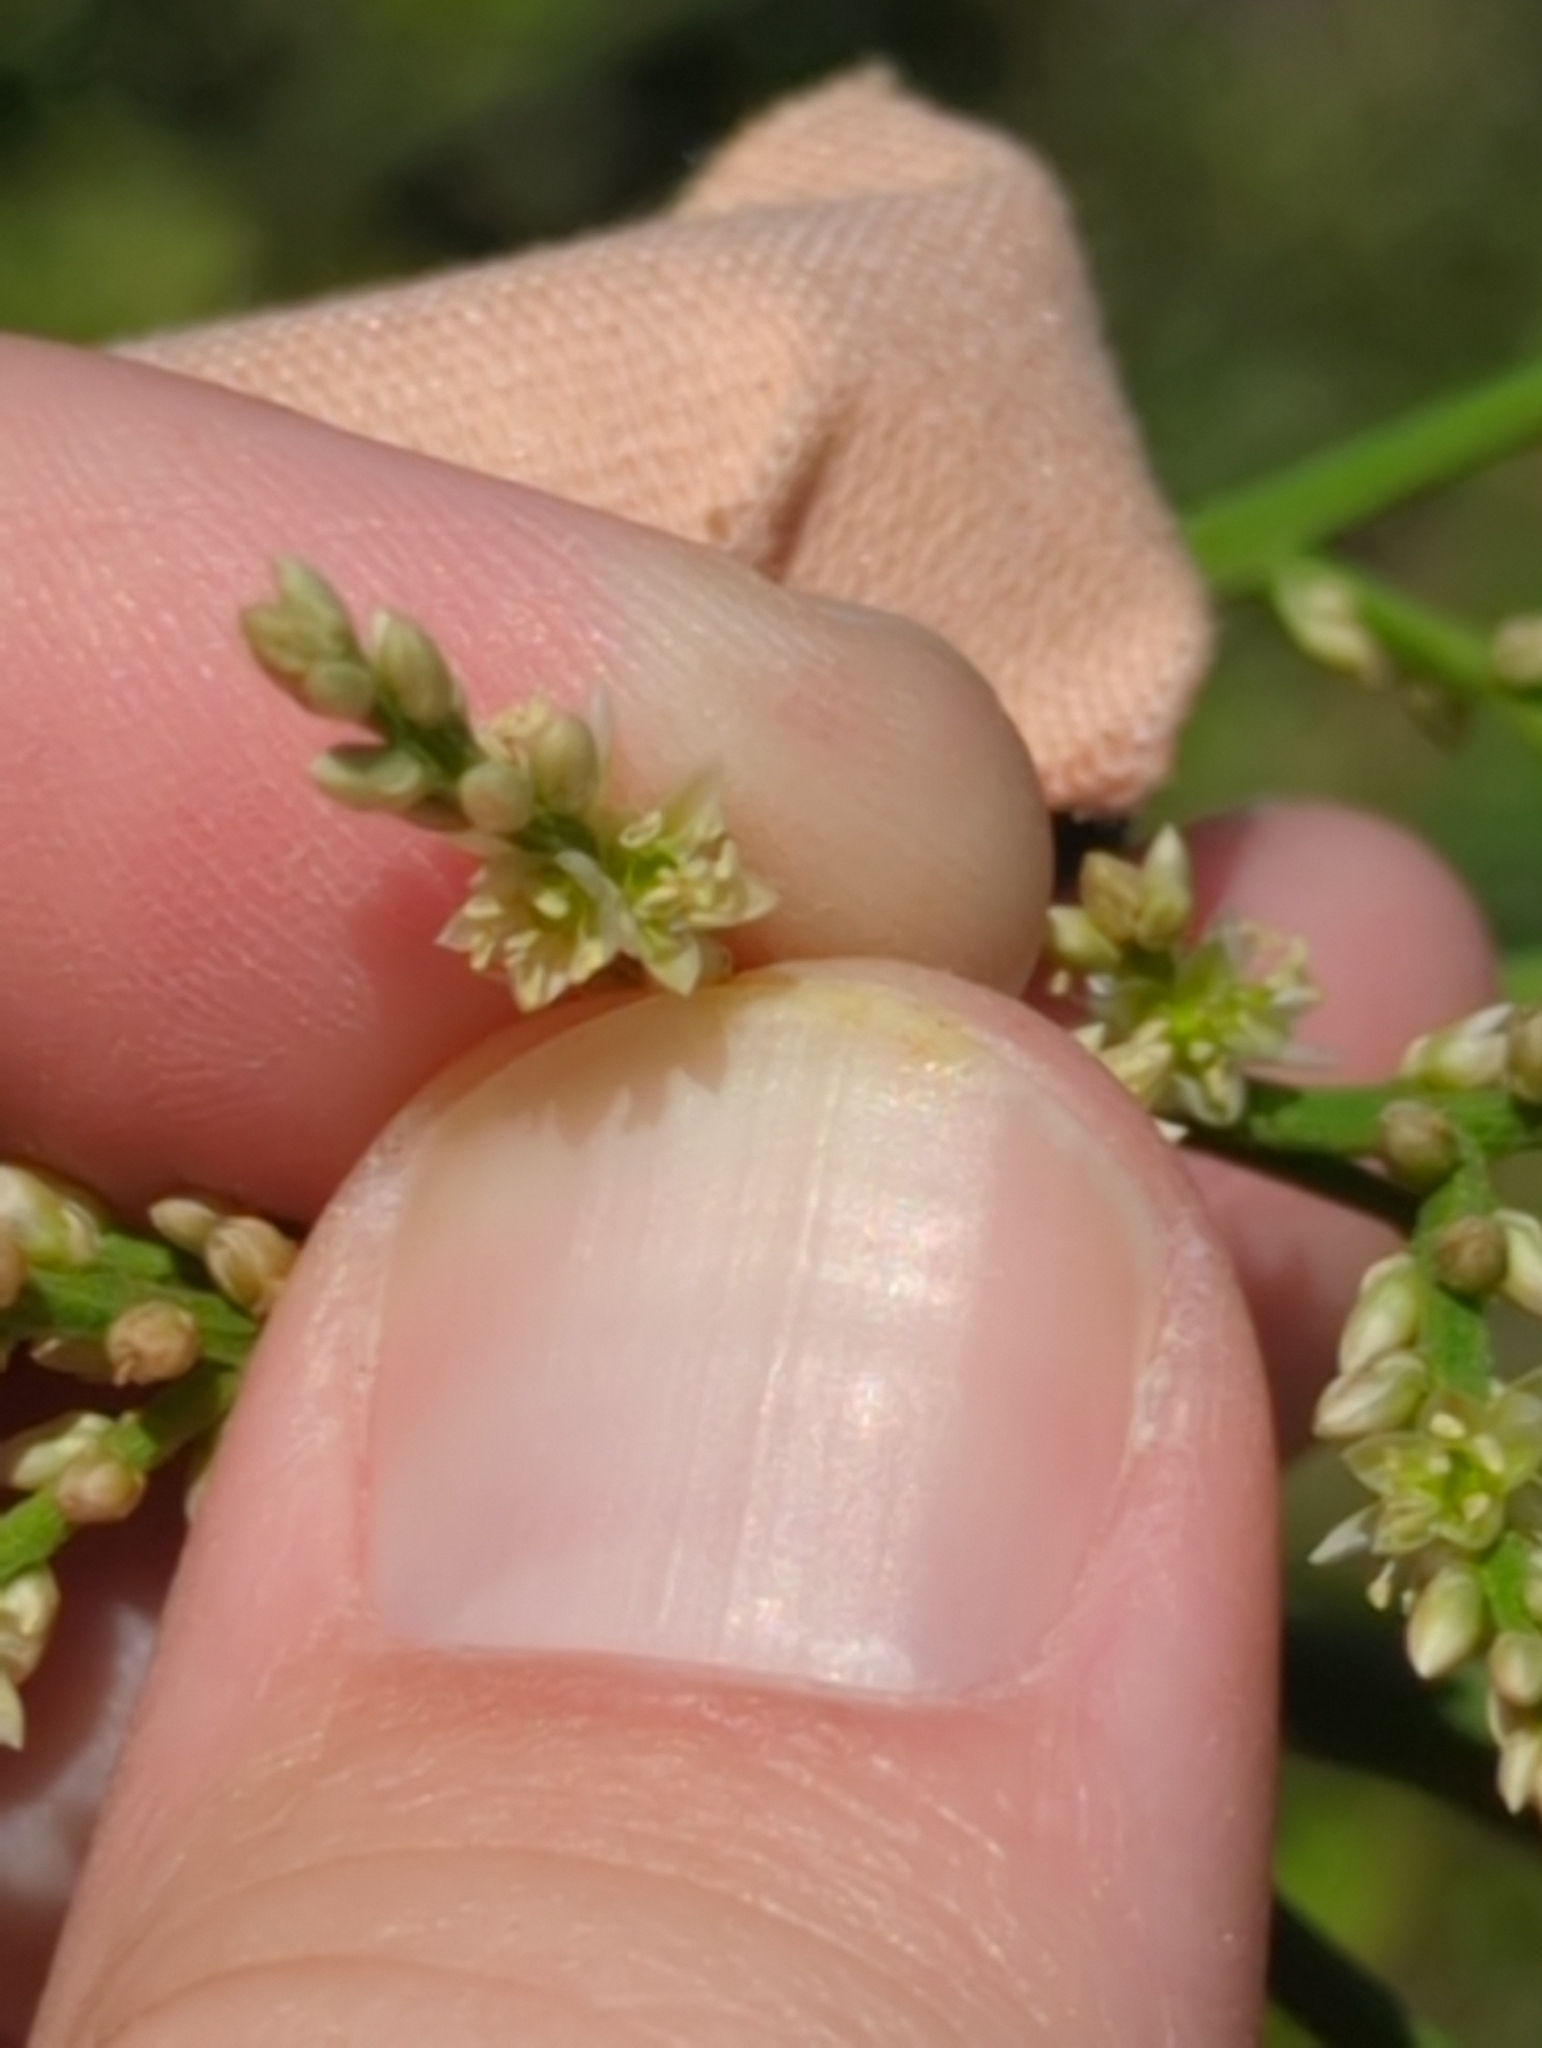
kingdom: Plantae
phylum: Tracheophyta
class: Magnoliopsida
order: Caryophyllales
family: Amaranthaceae
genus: Celosia
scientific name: Celosia floribunda
